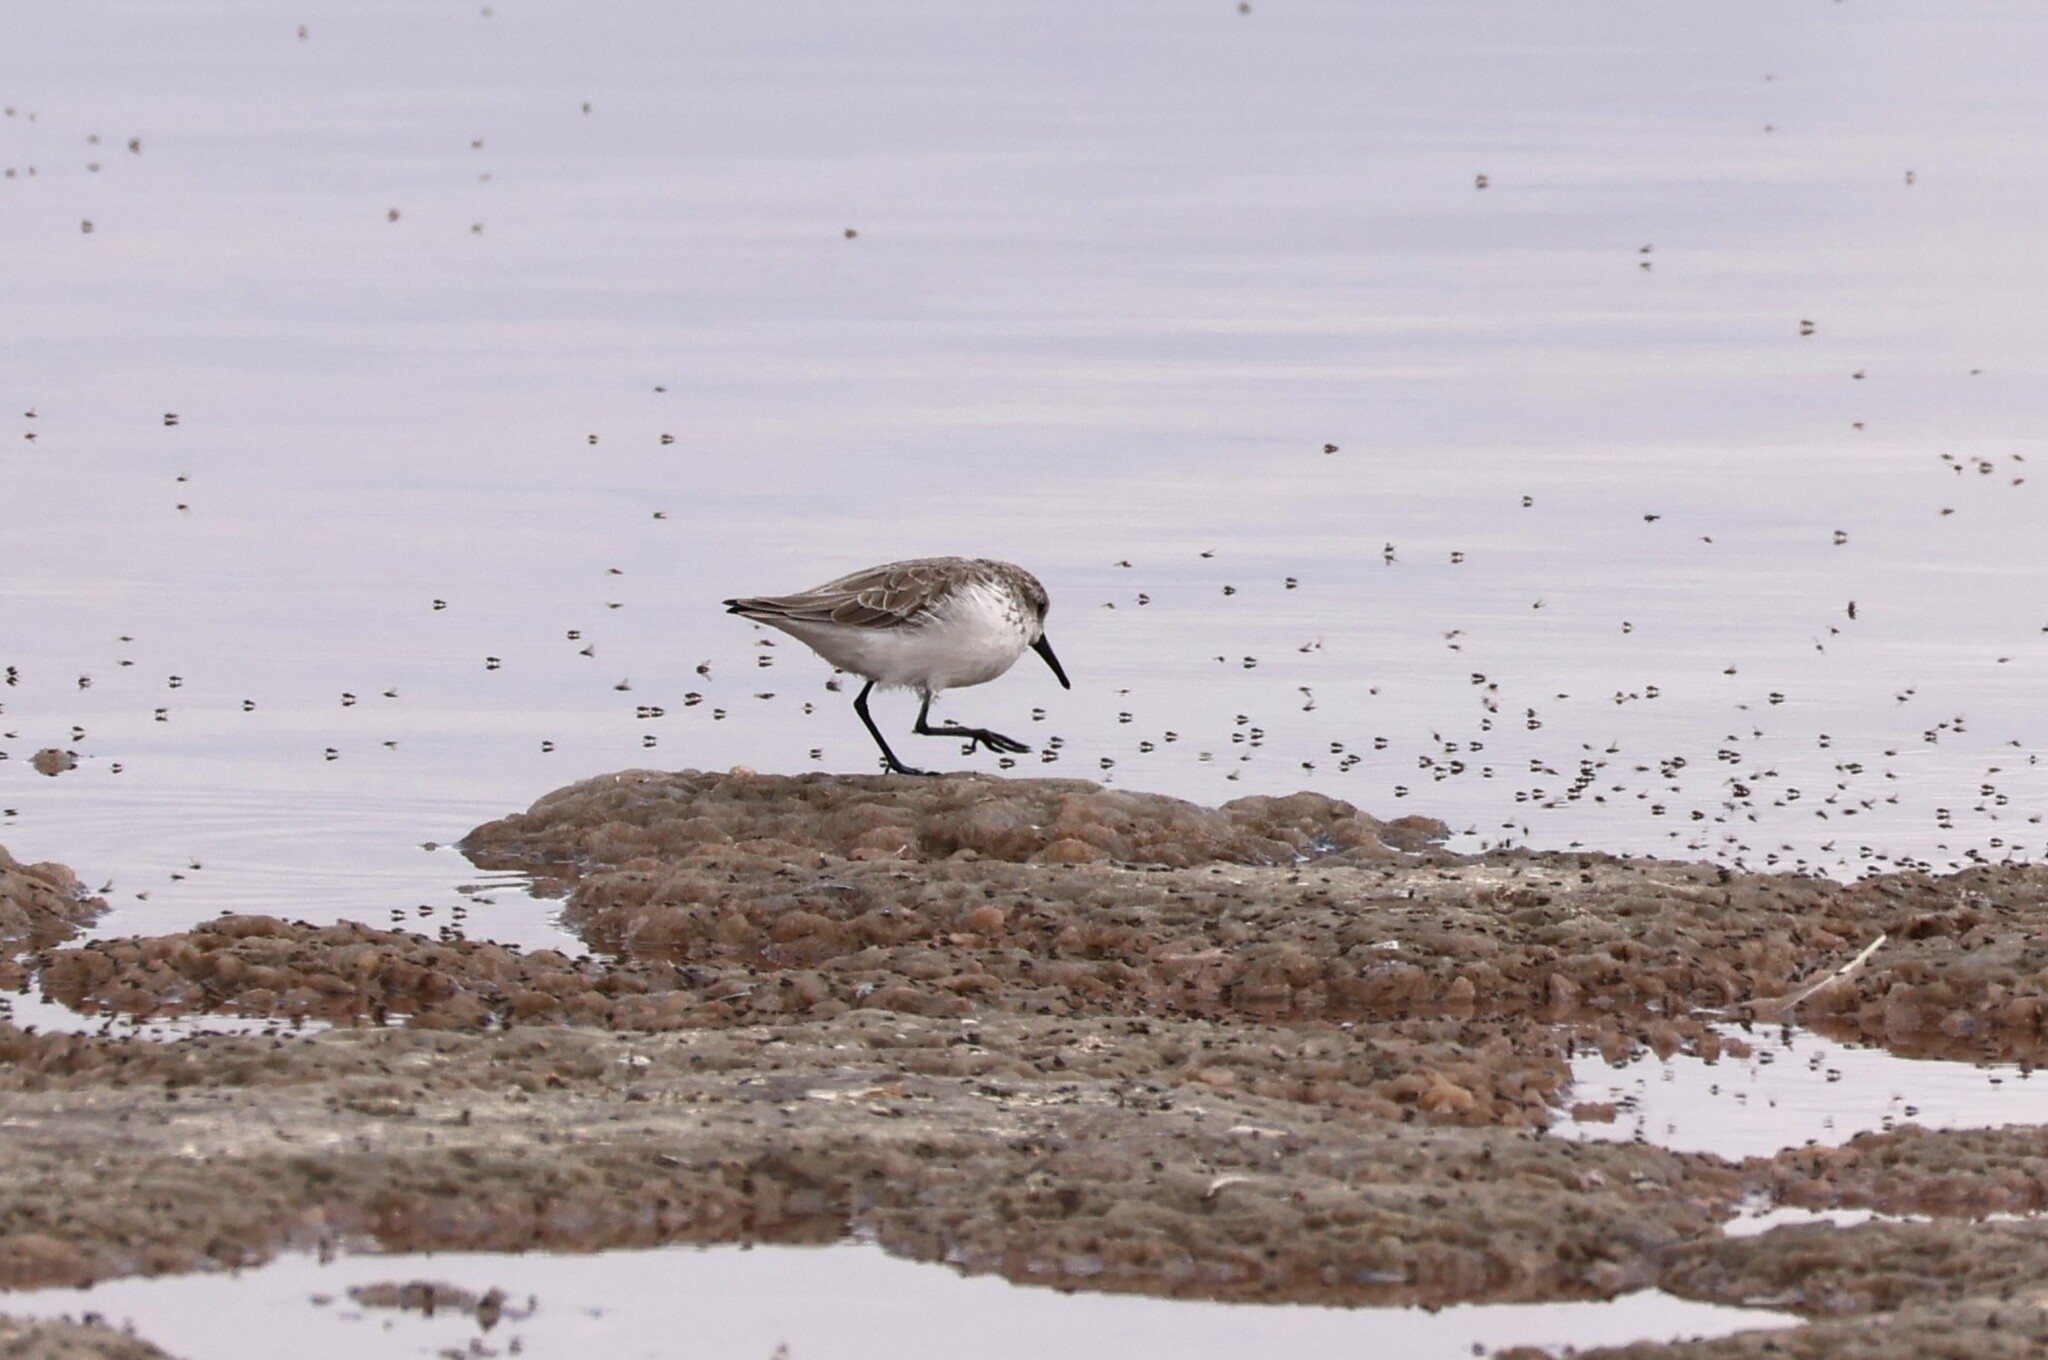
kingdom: Animalia
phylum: Chordata
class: Aves
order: Charadriiformes
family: Scolopacidae
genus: Calidris
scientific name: Calidris mauri
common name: Western sandpiper
